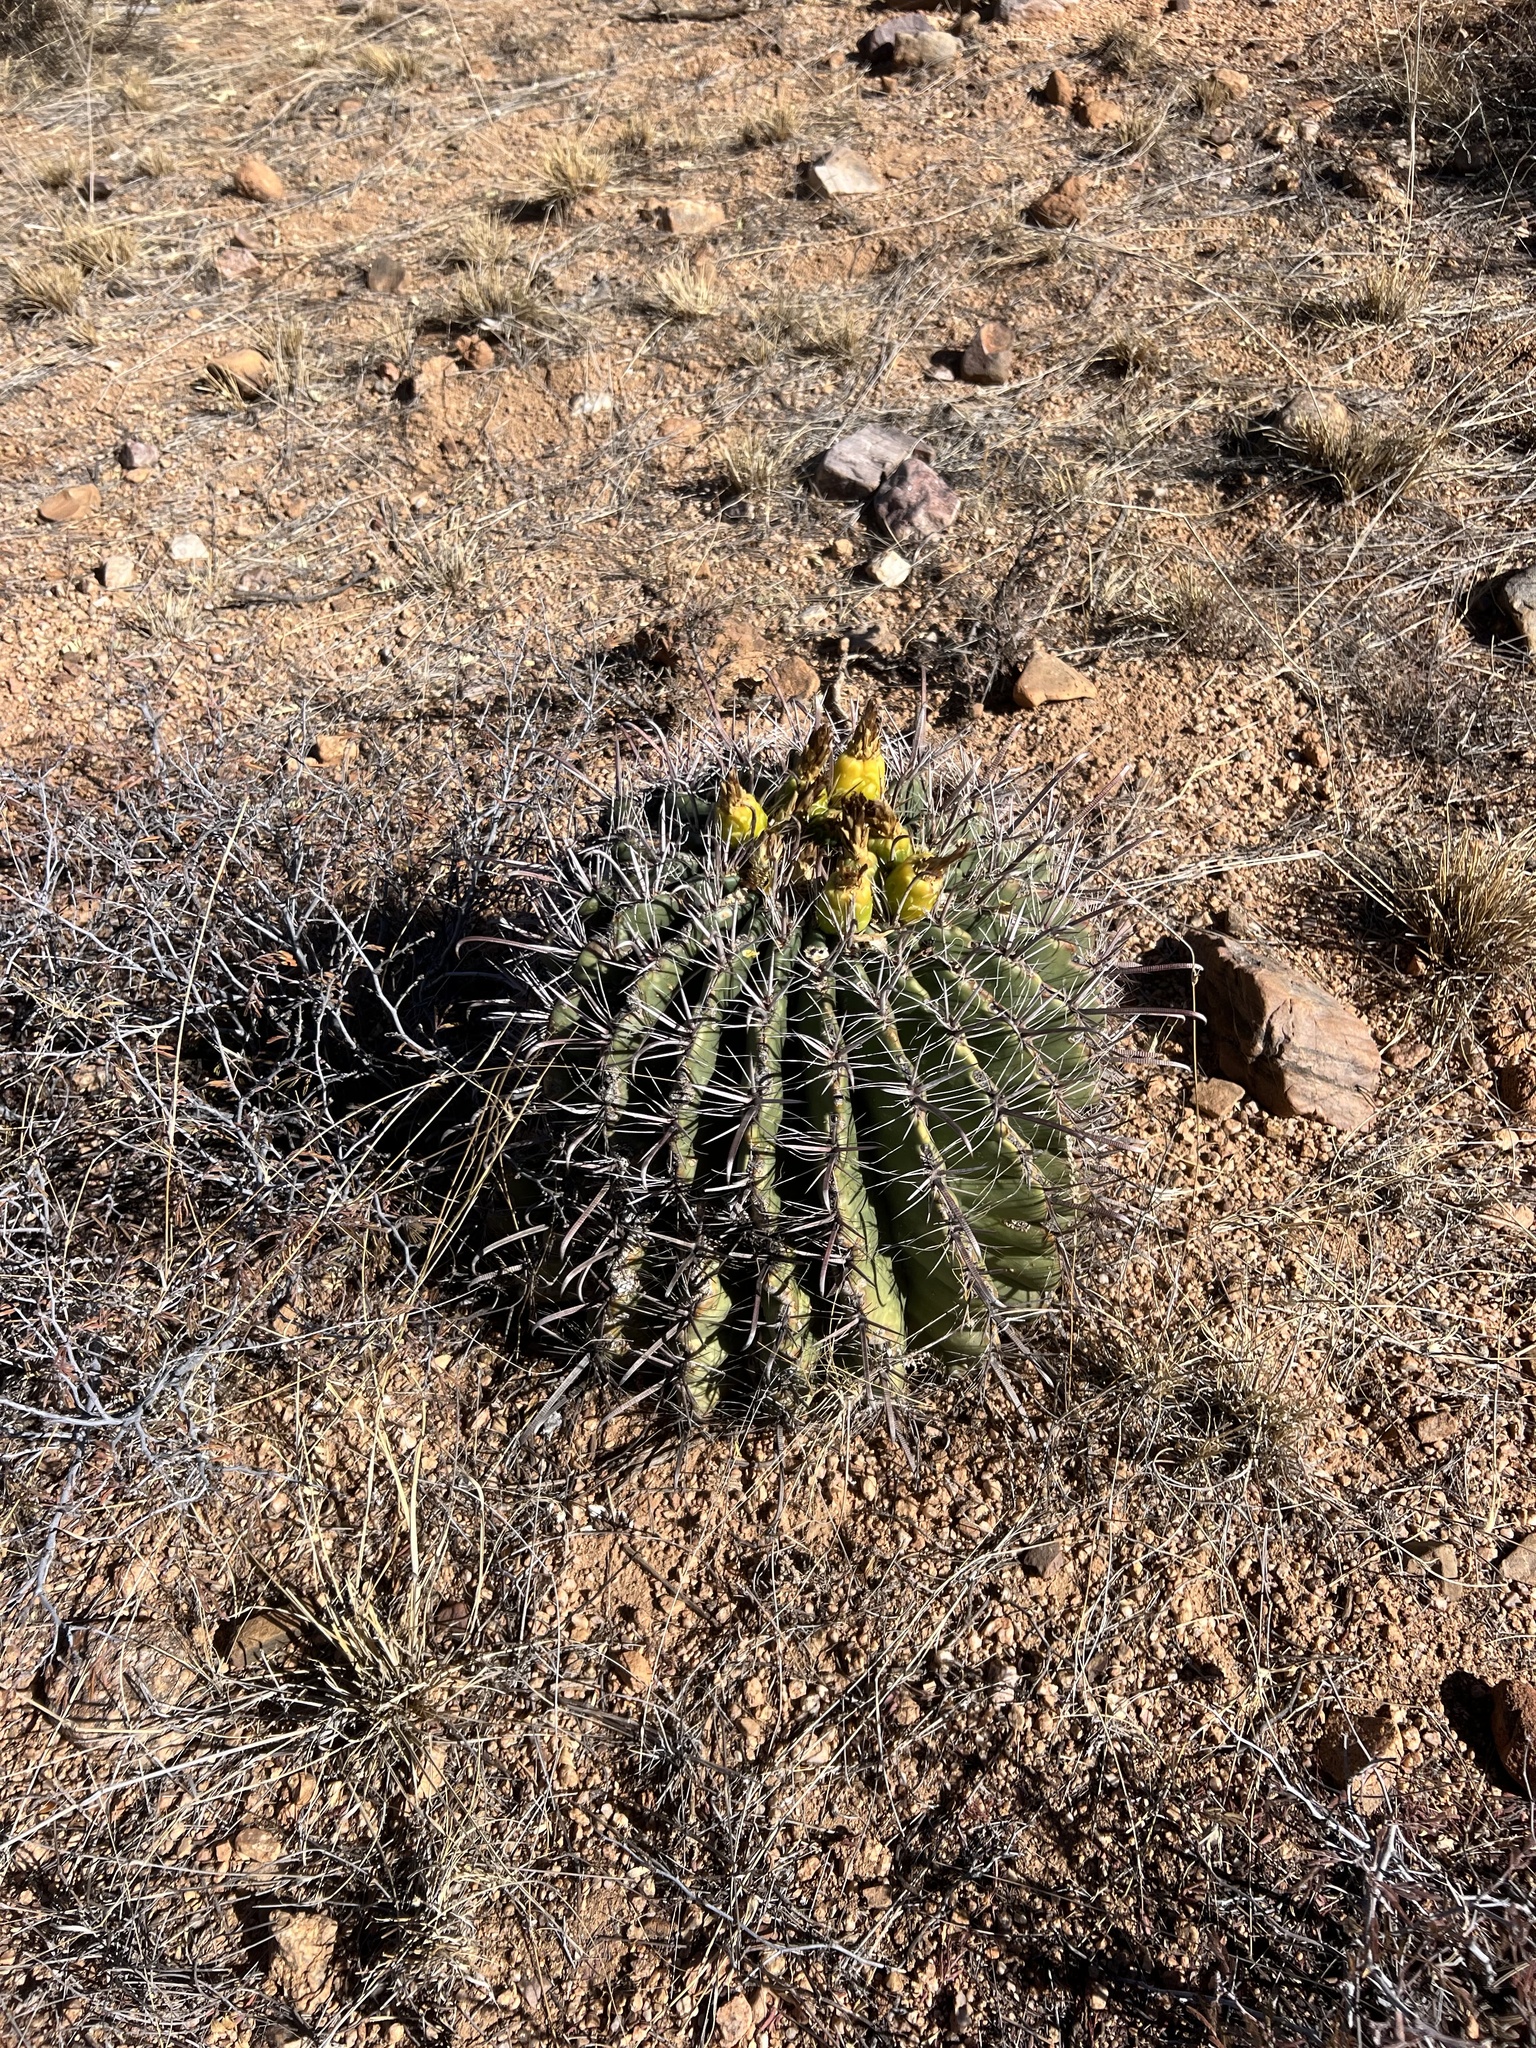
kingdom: Plantae
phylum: Tracheophyta
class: Magnoliopsida
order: Caryophyllales
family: Cactaceae
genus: Ferocactus
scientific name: Ferocactus wislizeni
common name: Candy barrel cactus
